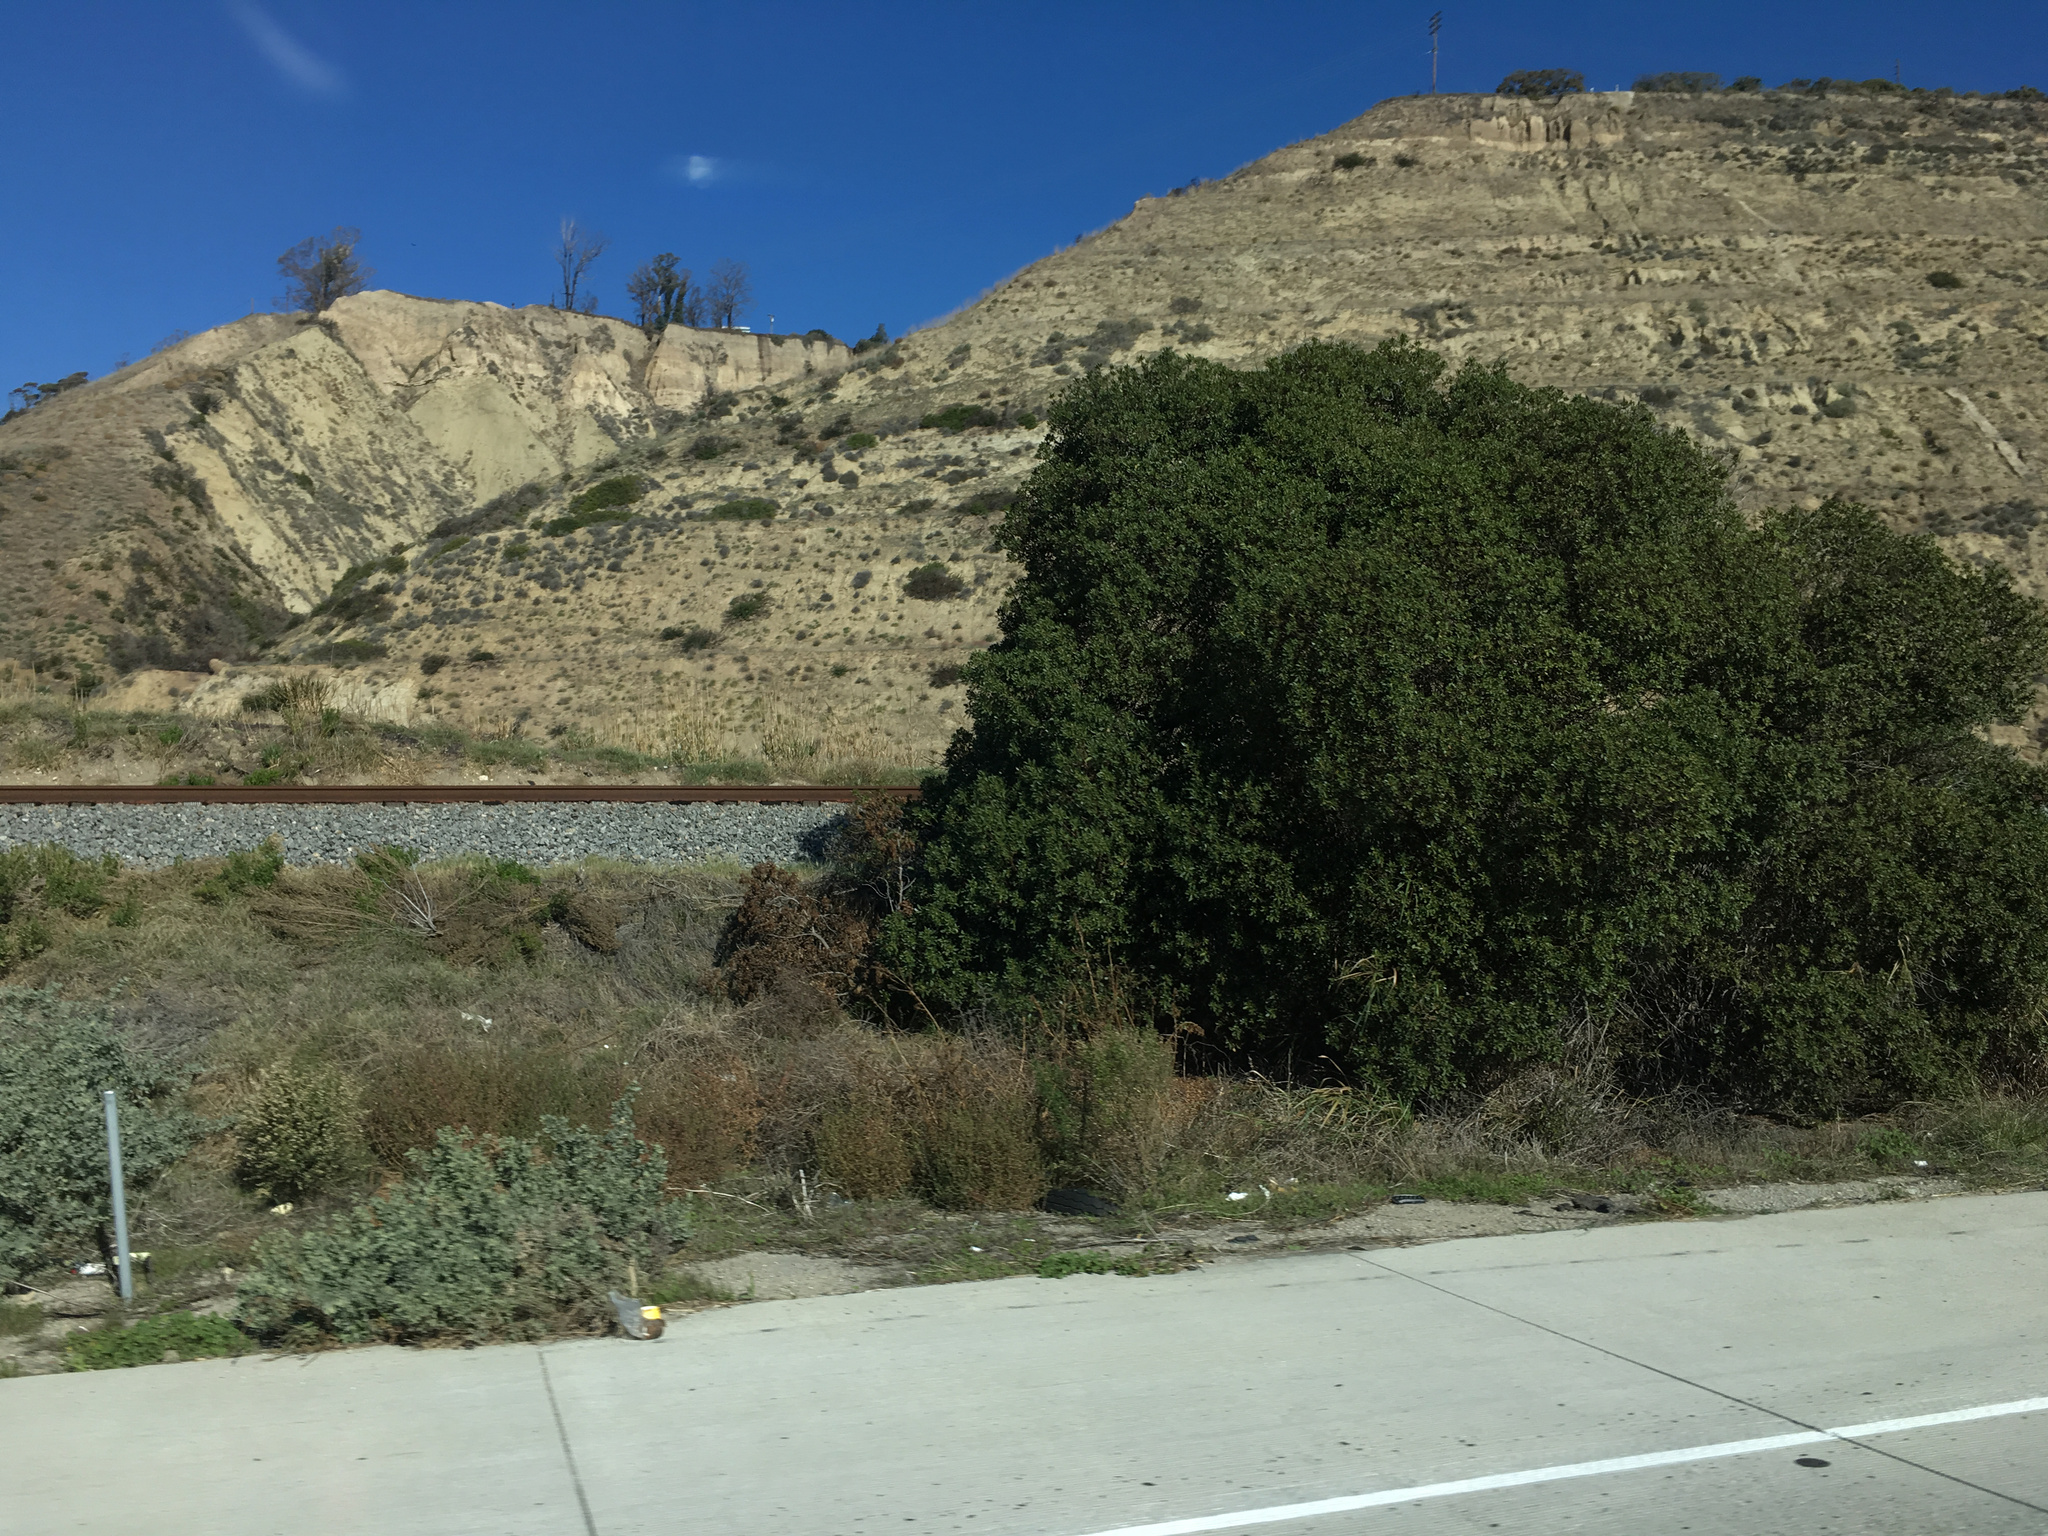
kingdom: Plantae
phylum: Tracheophyta
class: Magnoliopsida
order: Lamiales
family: Scrophulariaceae
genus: Myoporum
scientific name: Myoporum laetum
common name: Ngaio tree
